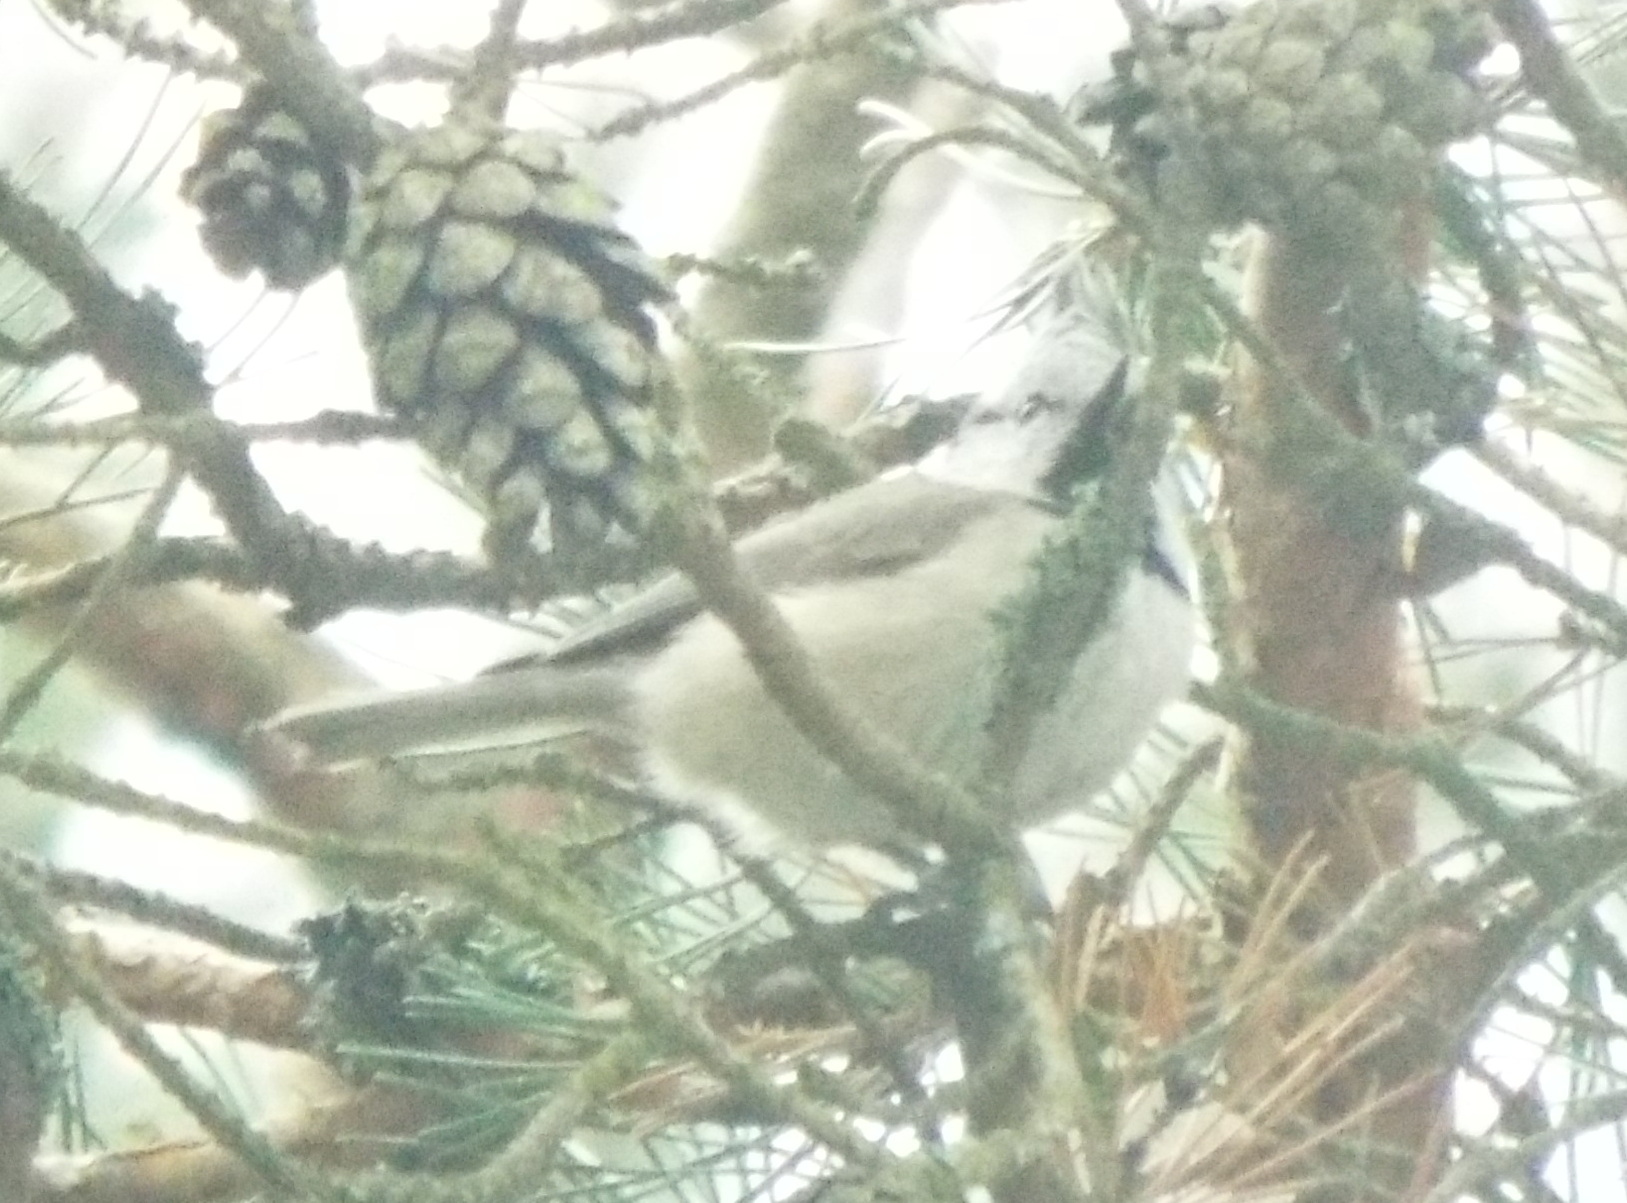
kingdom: Animalia
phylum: Chordata
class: Aves
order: Passeriformes
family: Paridae
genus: Lophophanes
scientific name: Lophophanes cristatus
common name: European crested tit
